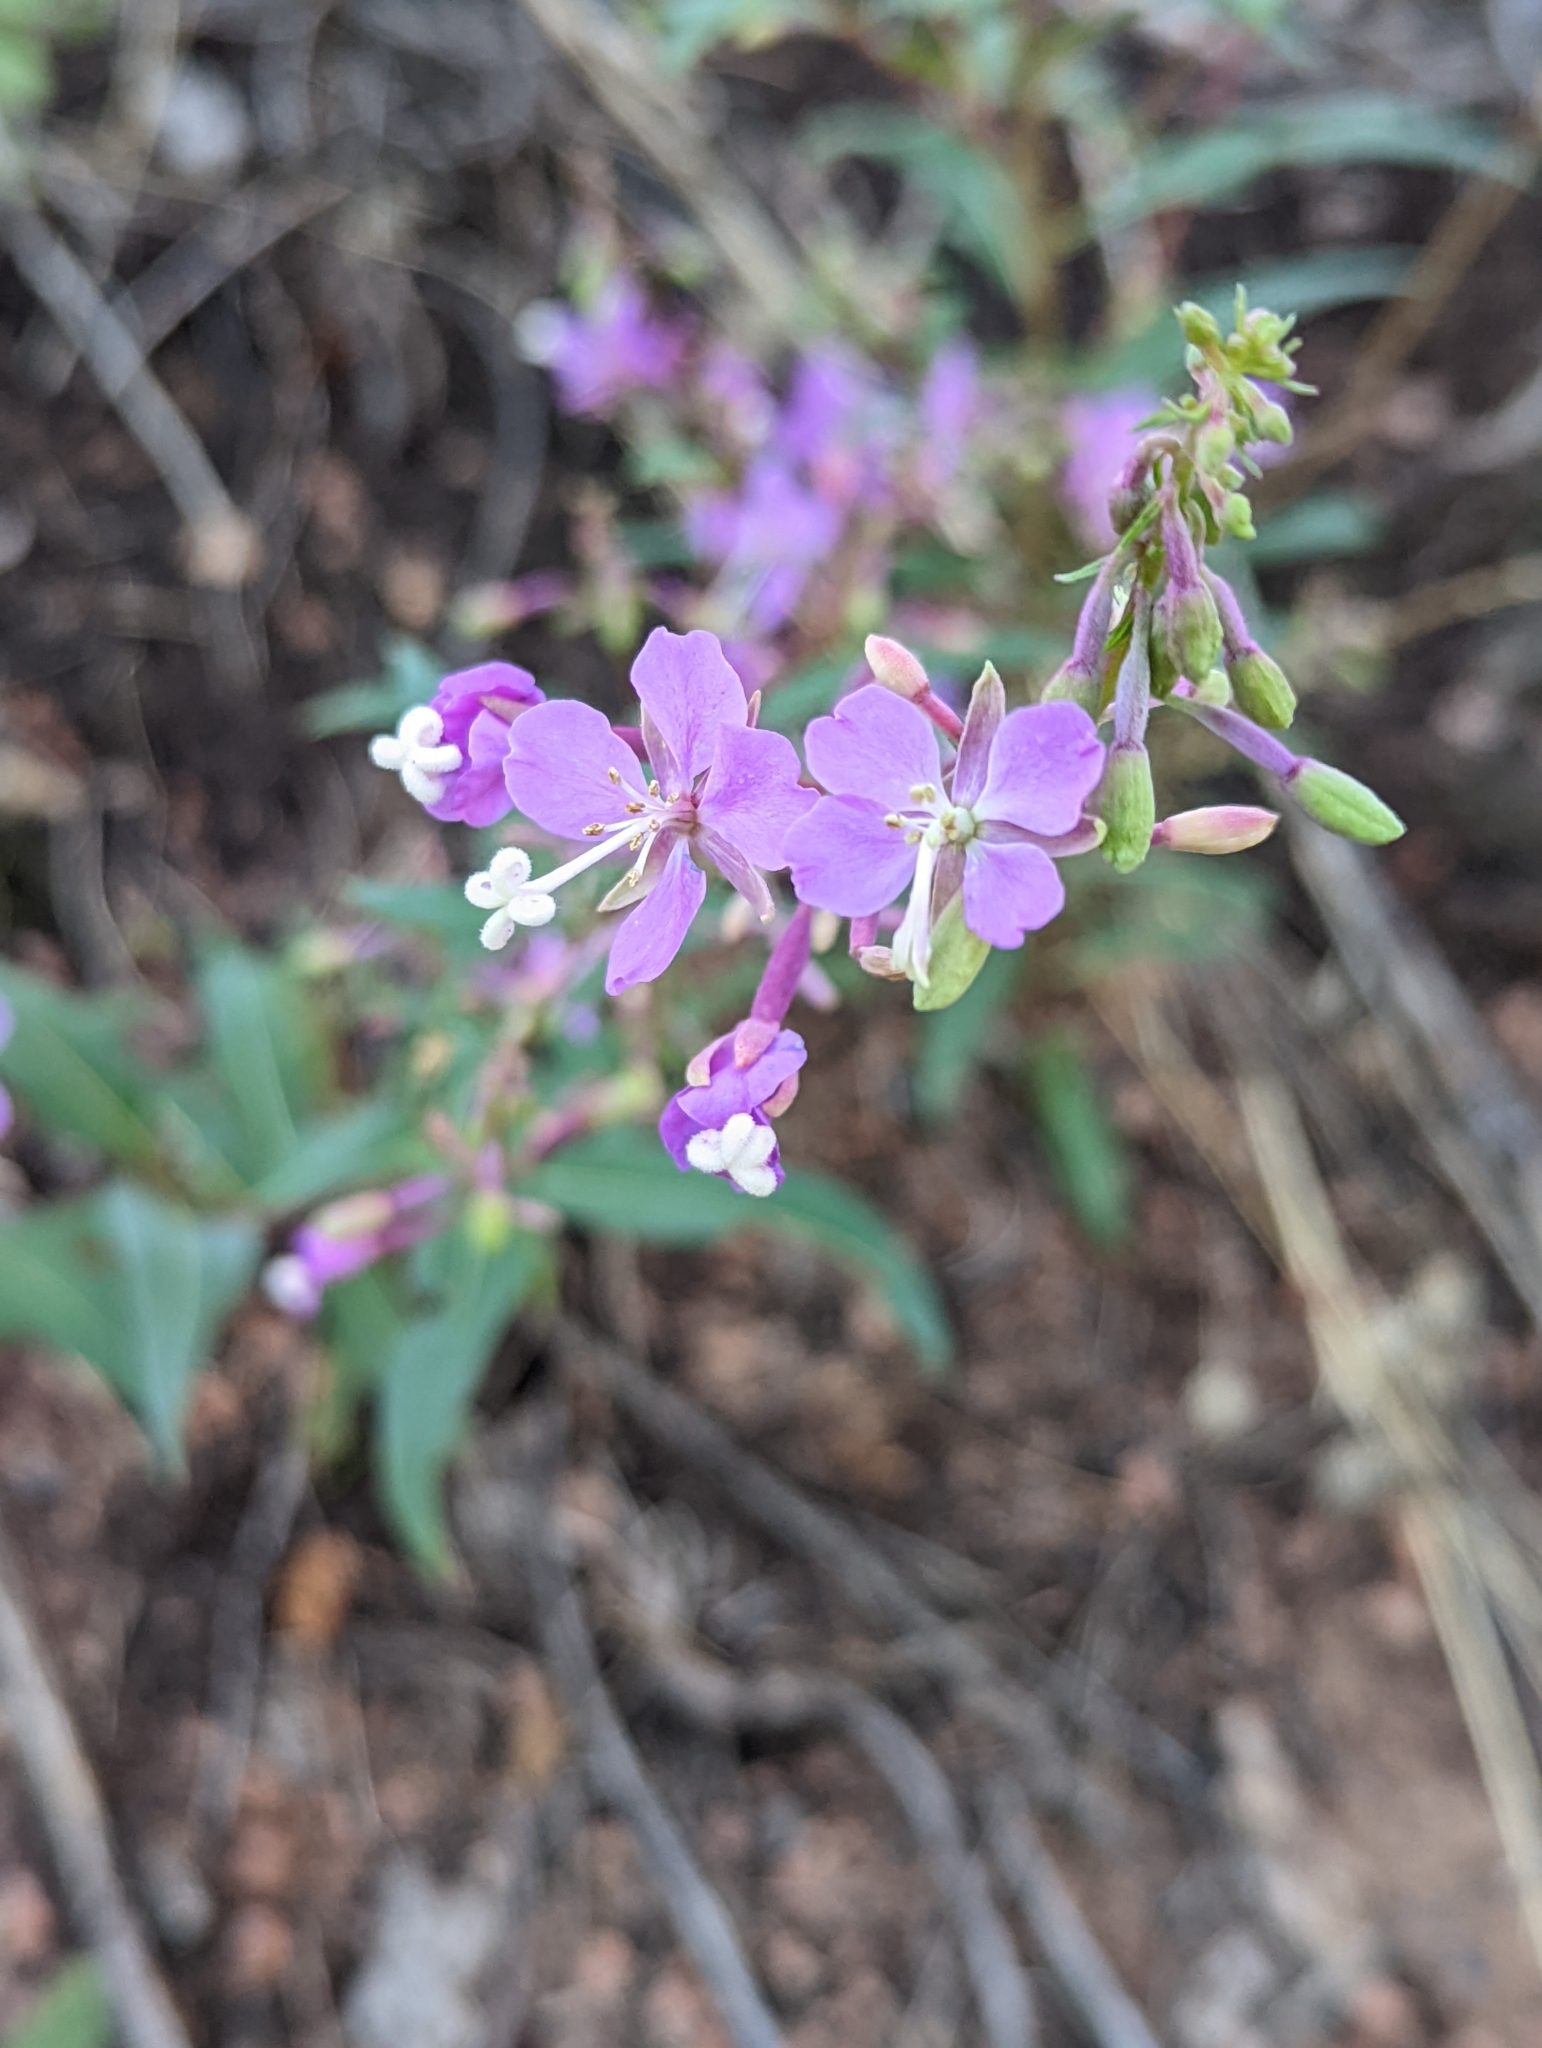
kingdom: Plantae
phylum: Tracheophyta
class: Magnoliopsida
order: Myrtales
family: Onagraceae
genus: Chamaenerion
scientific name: Chamaenerion angustifolium
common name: Fireweed
